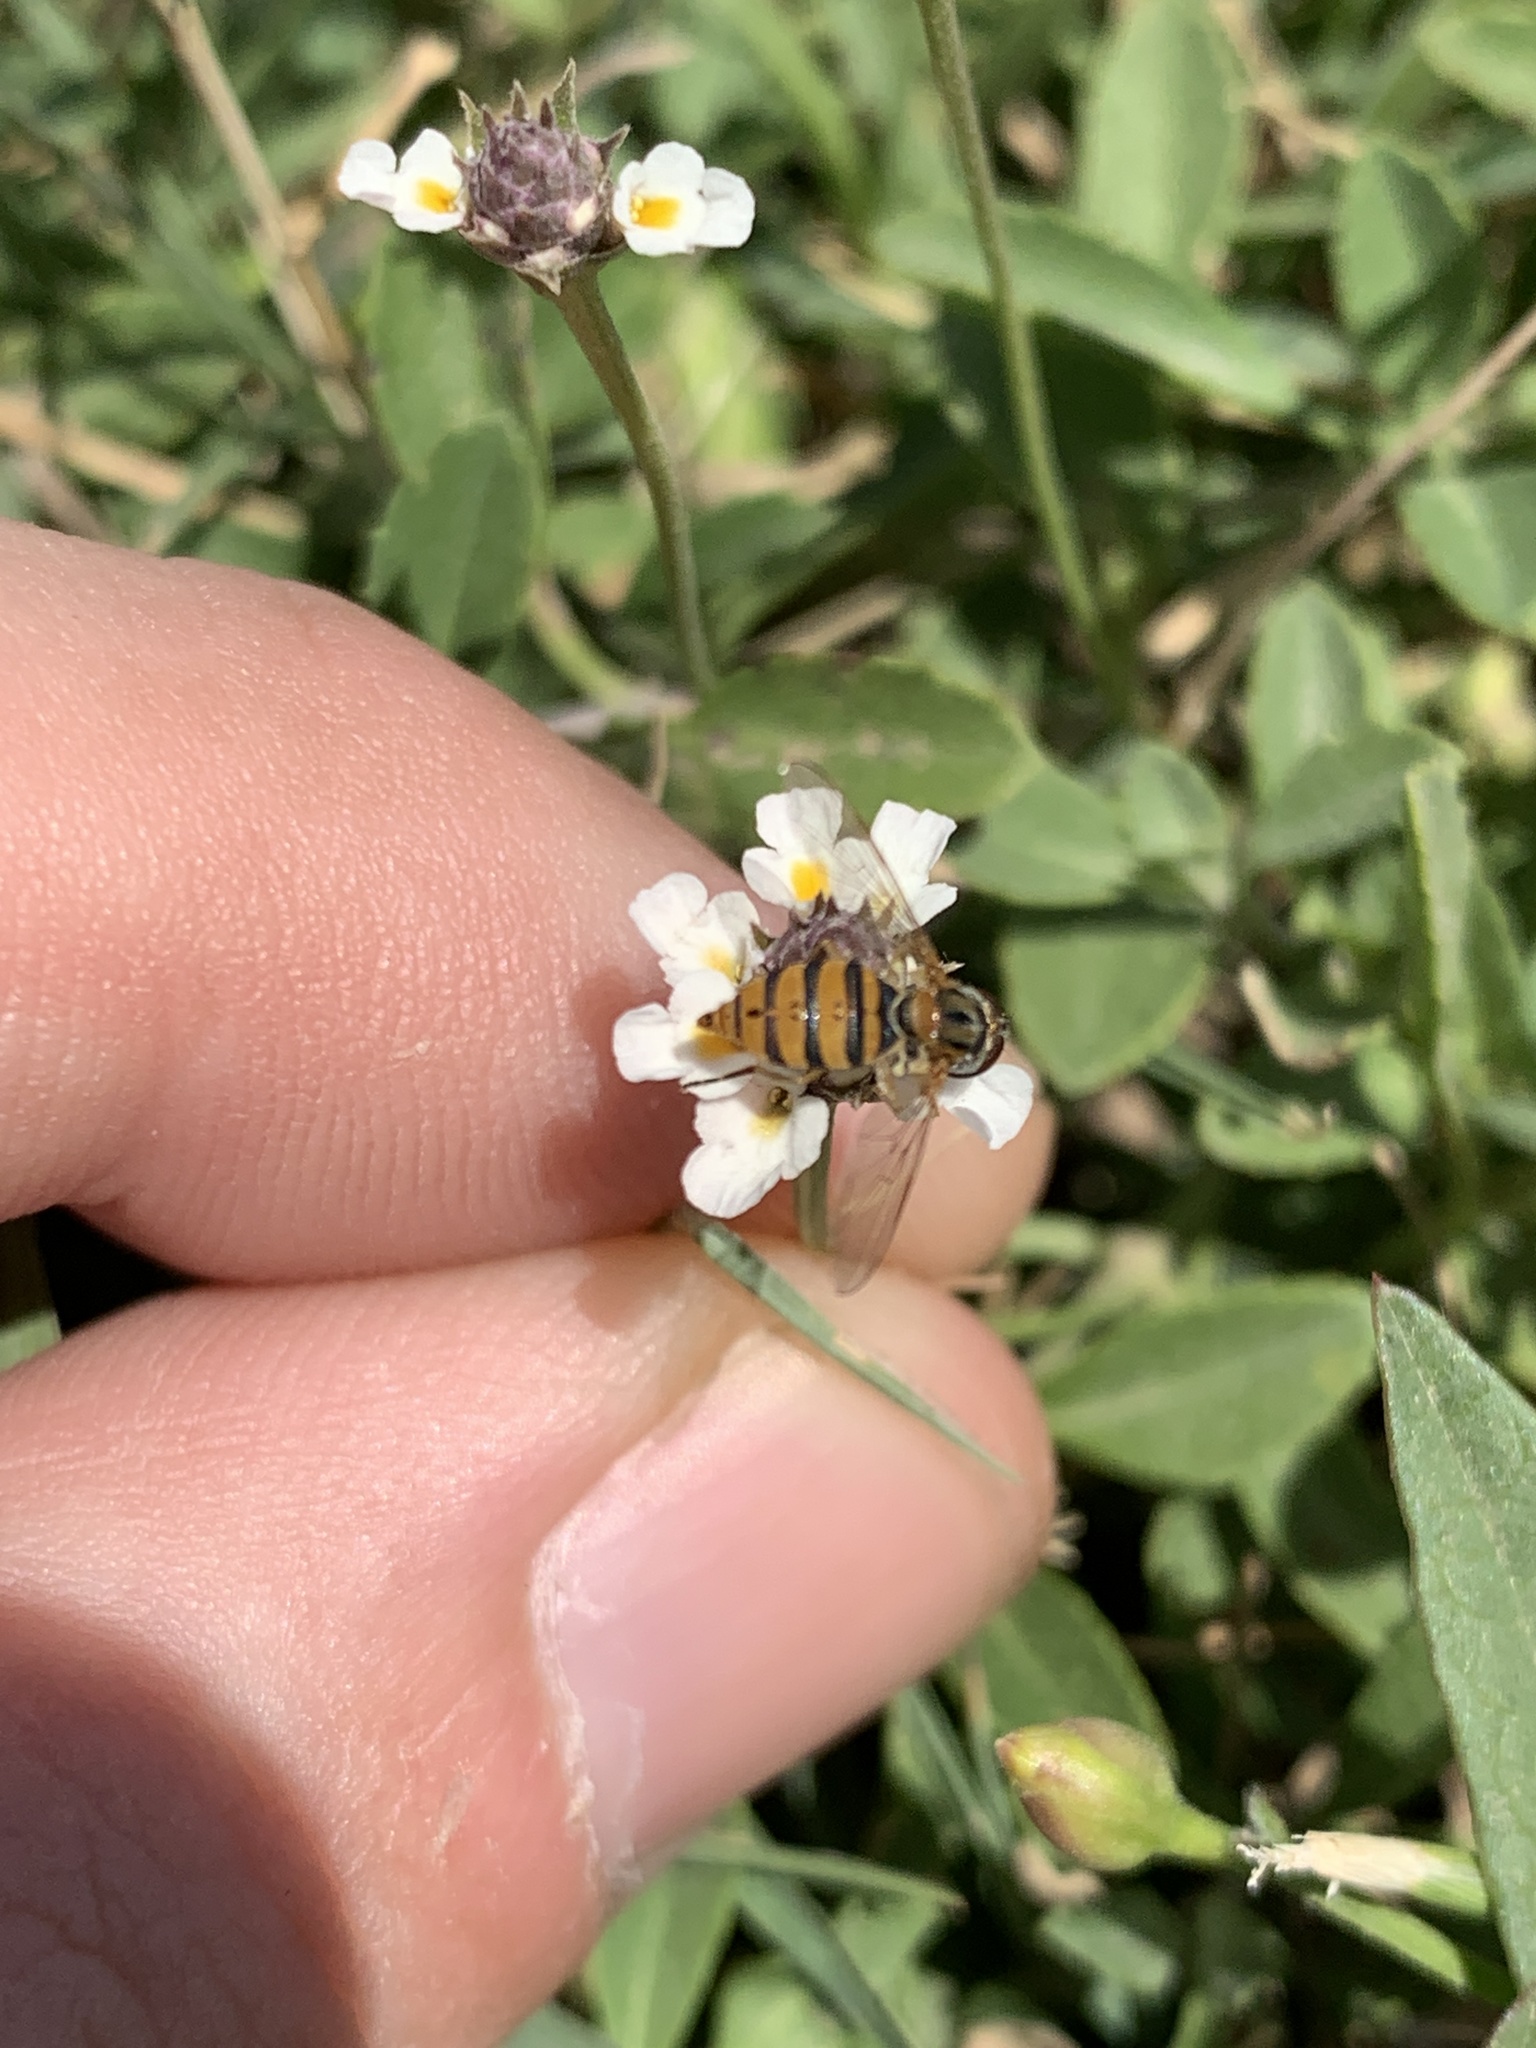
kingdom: Animalia
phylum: Arthropoda
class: Insecta
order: Diptera
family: Syrphidae
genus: Toxomerus
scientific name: Toxomerus
